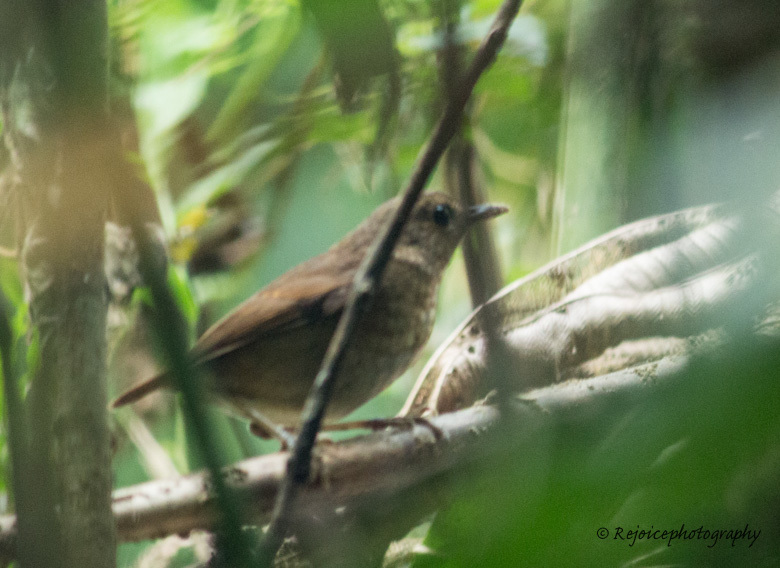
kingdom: Animalia
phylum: Chordata
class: Aves
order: Passeriformes
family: Muscicapidae
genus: Brachypteryx
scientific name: Brachypteryx leucophris
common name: Lesser shortwing
